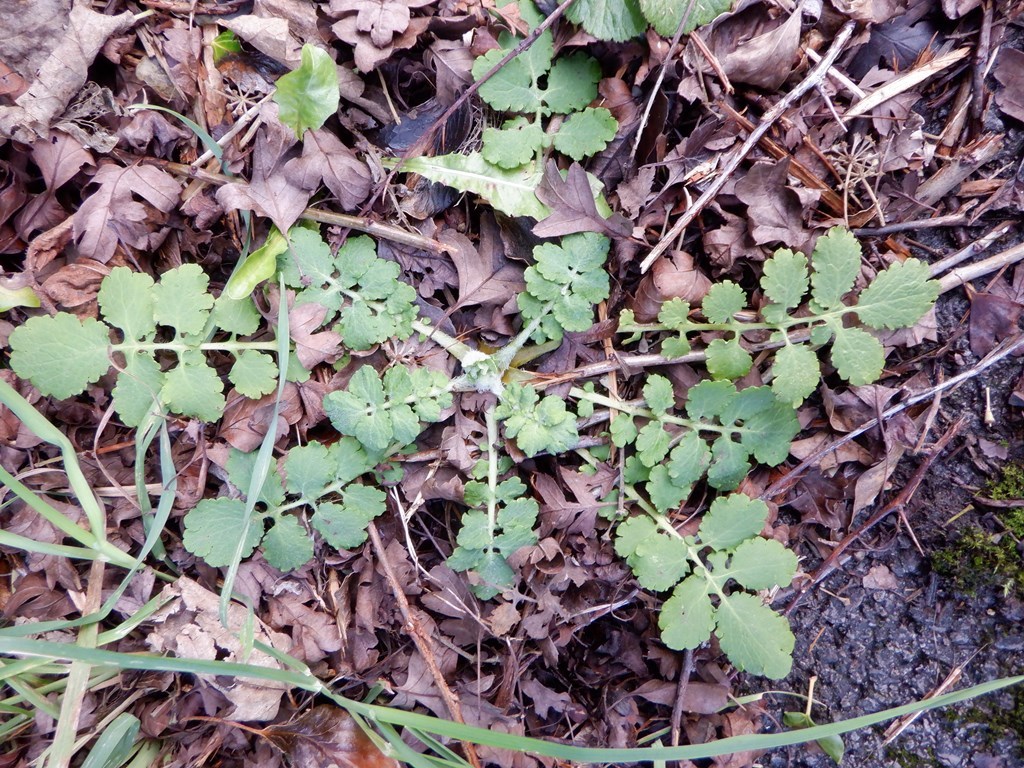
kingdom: Plantae
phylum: Tracheophyta
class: Magnoliopsida
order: Ranunculales
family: Papaveraceae
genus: Chelidonium
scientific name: Chelidonium majus
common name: Greater celandine
